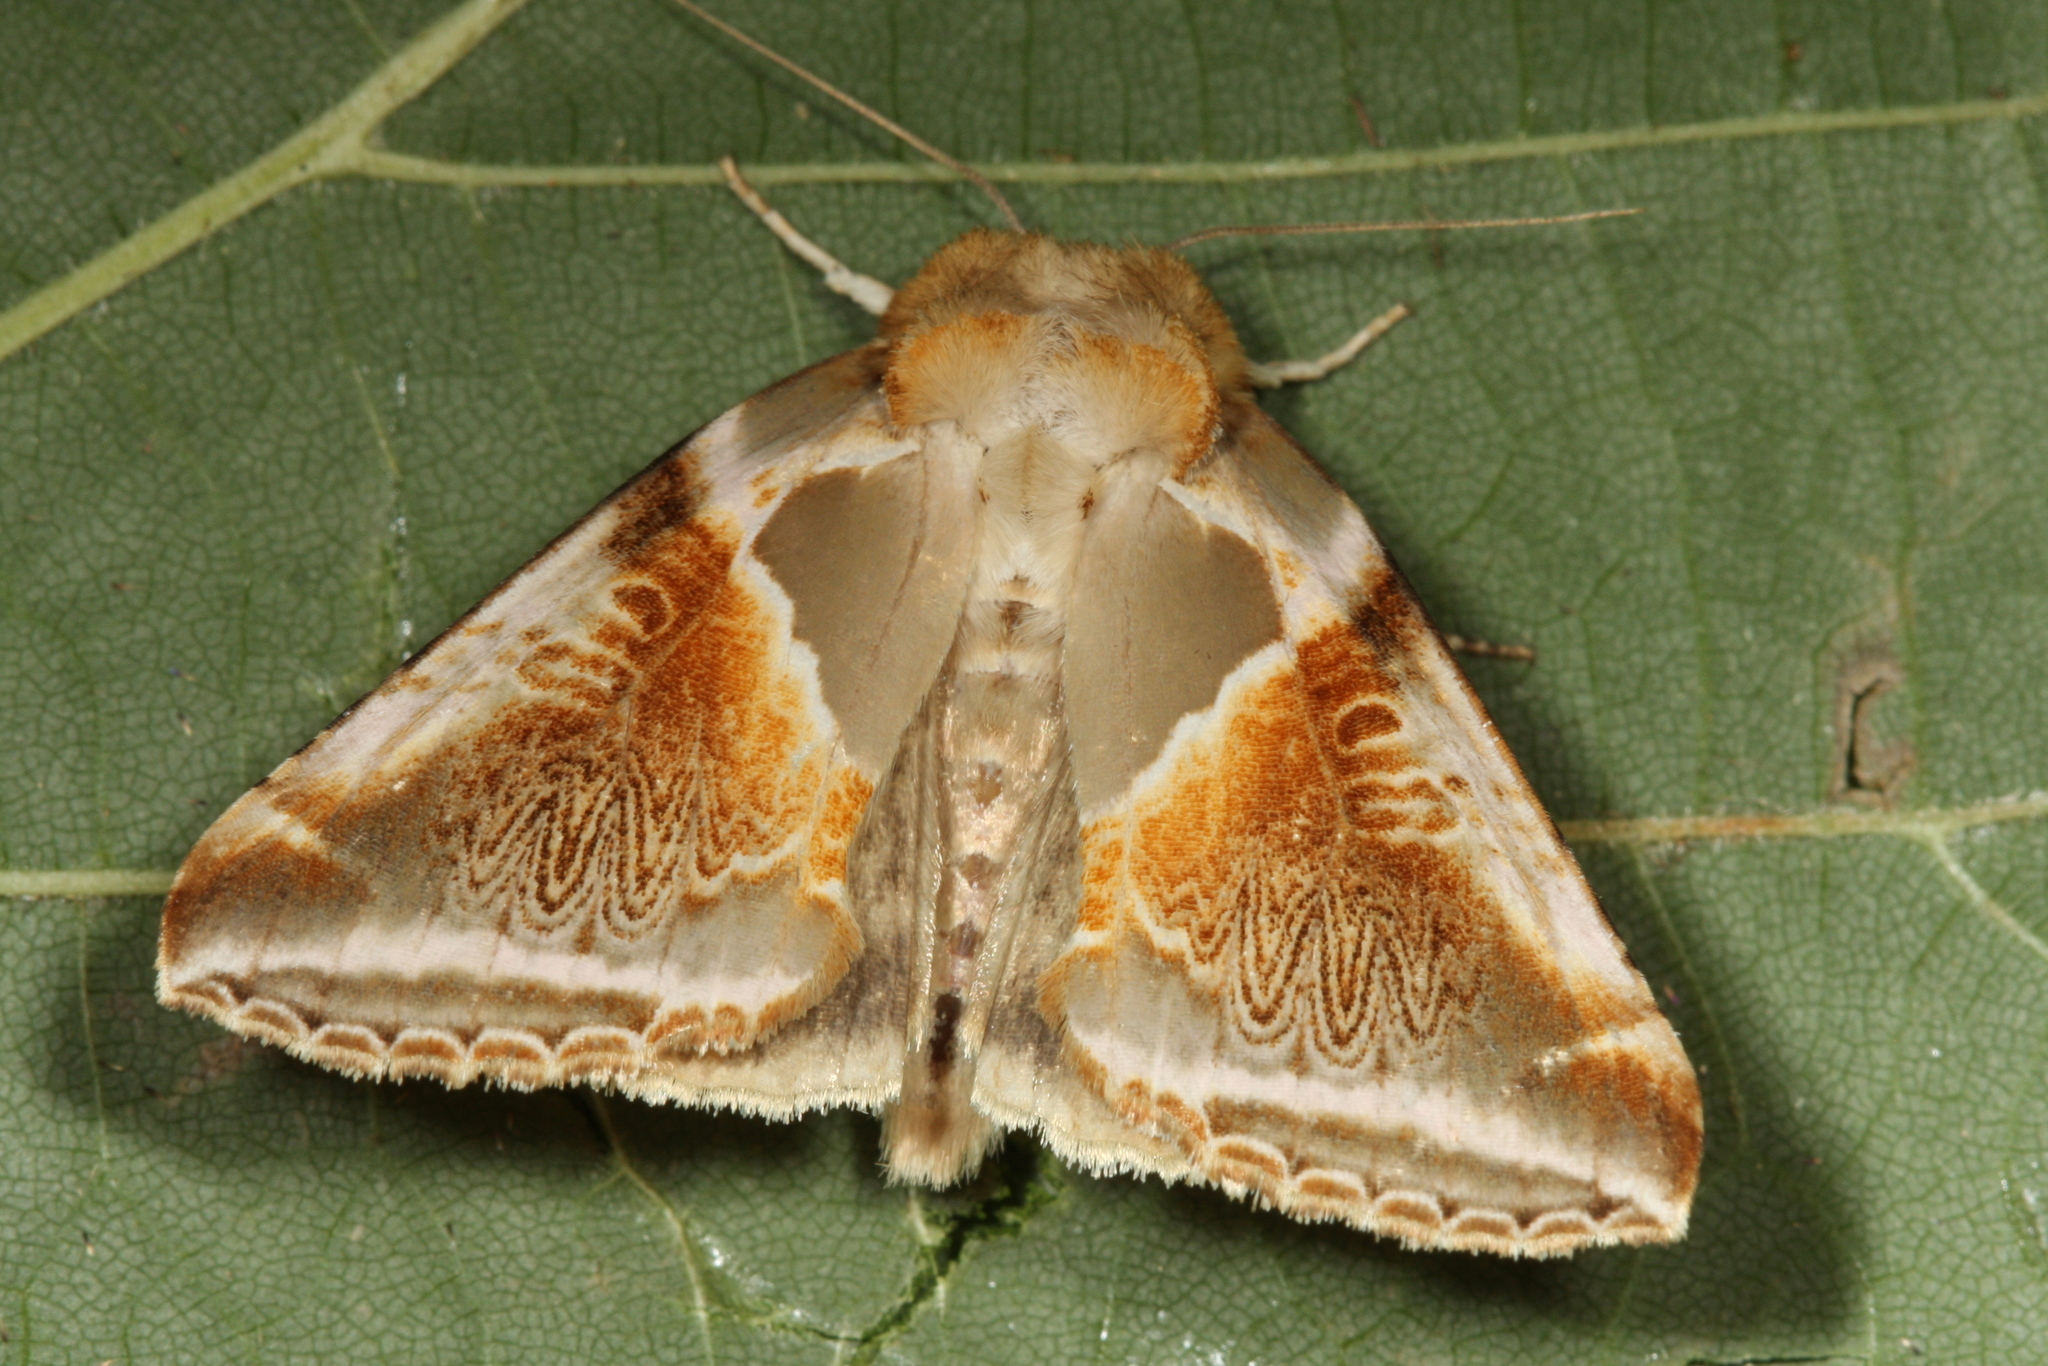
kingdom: Animalia
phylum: Arthropoda
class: Insecta
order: Lepidoptera
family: Drepanidae
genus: Habrosyne
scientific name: Habrosyne pyritoides
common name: Buff arches
